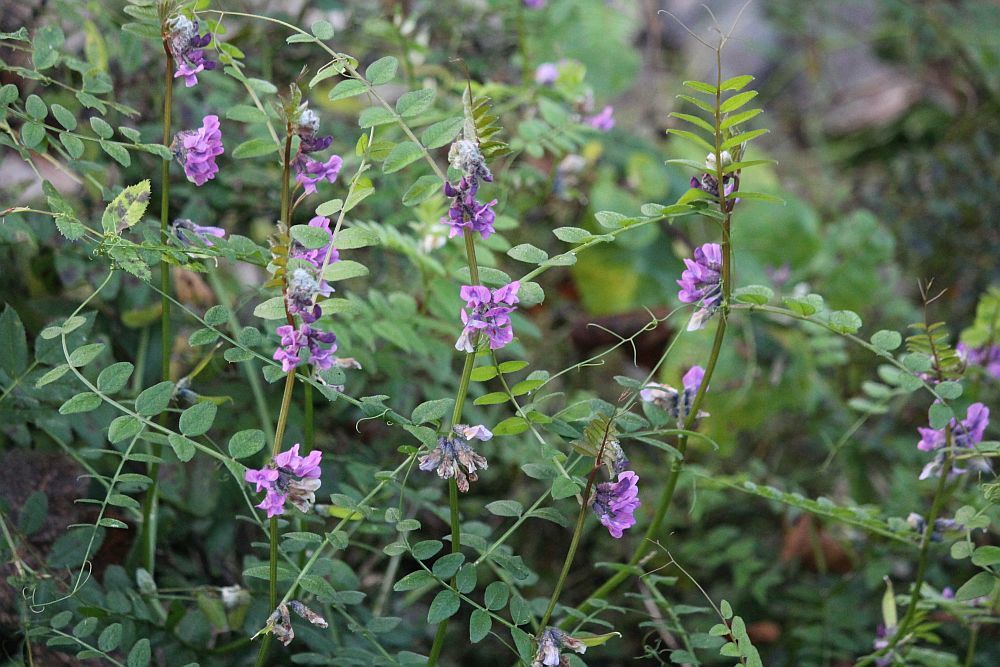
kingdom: Plantae
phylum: Tracheophyta
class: Magnoliopsida
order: Fabales
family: Fabaceae
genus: Vicia
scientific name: Vicia sepium
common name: Bush vetch
